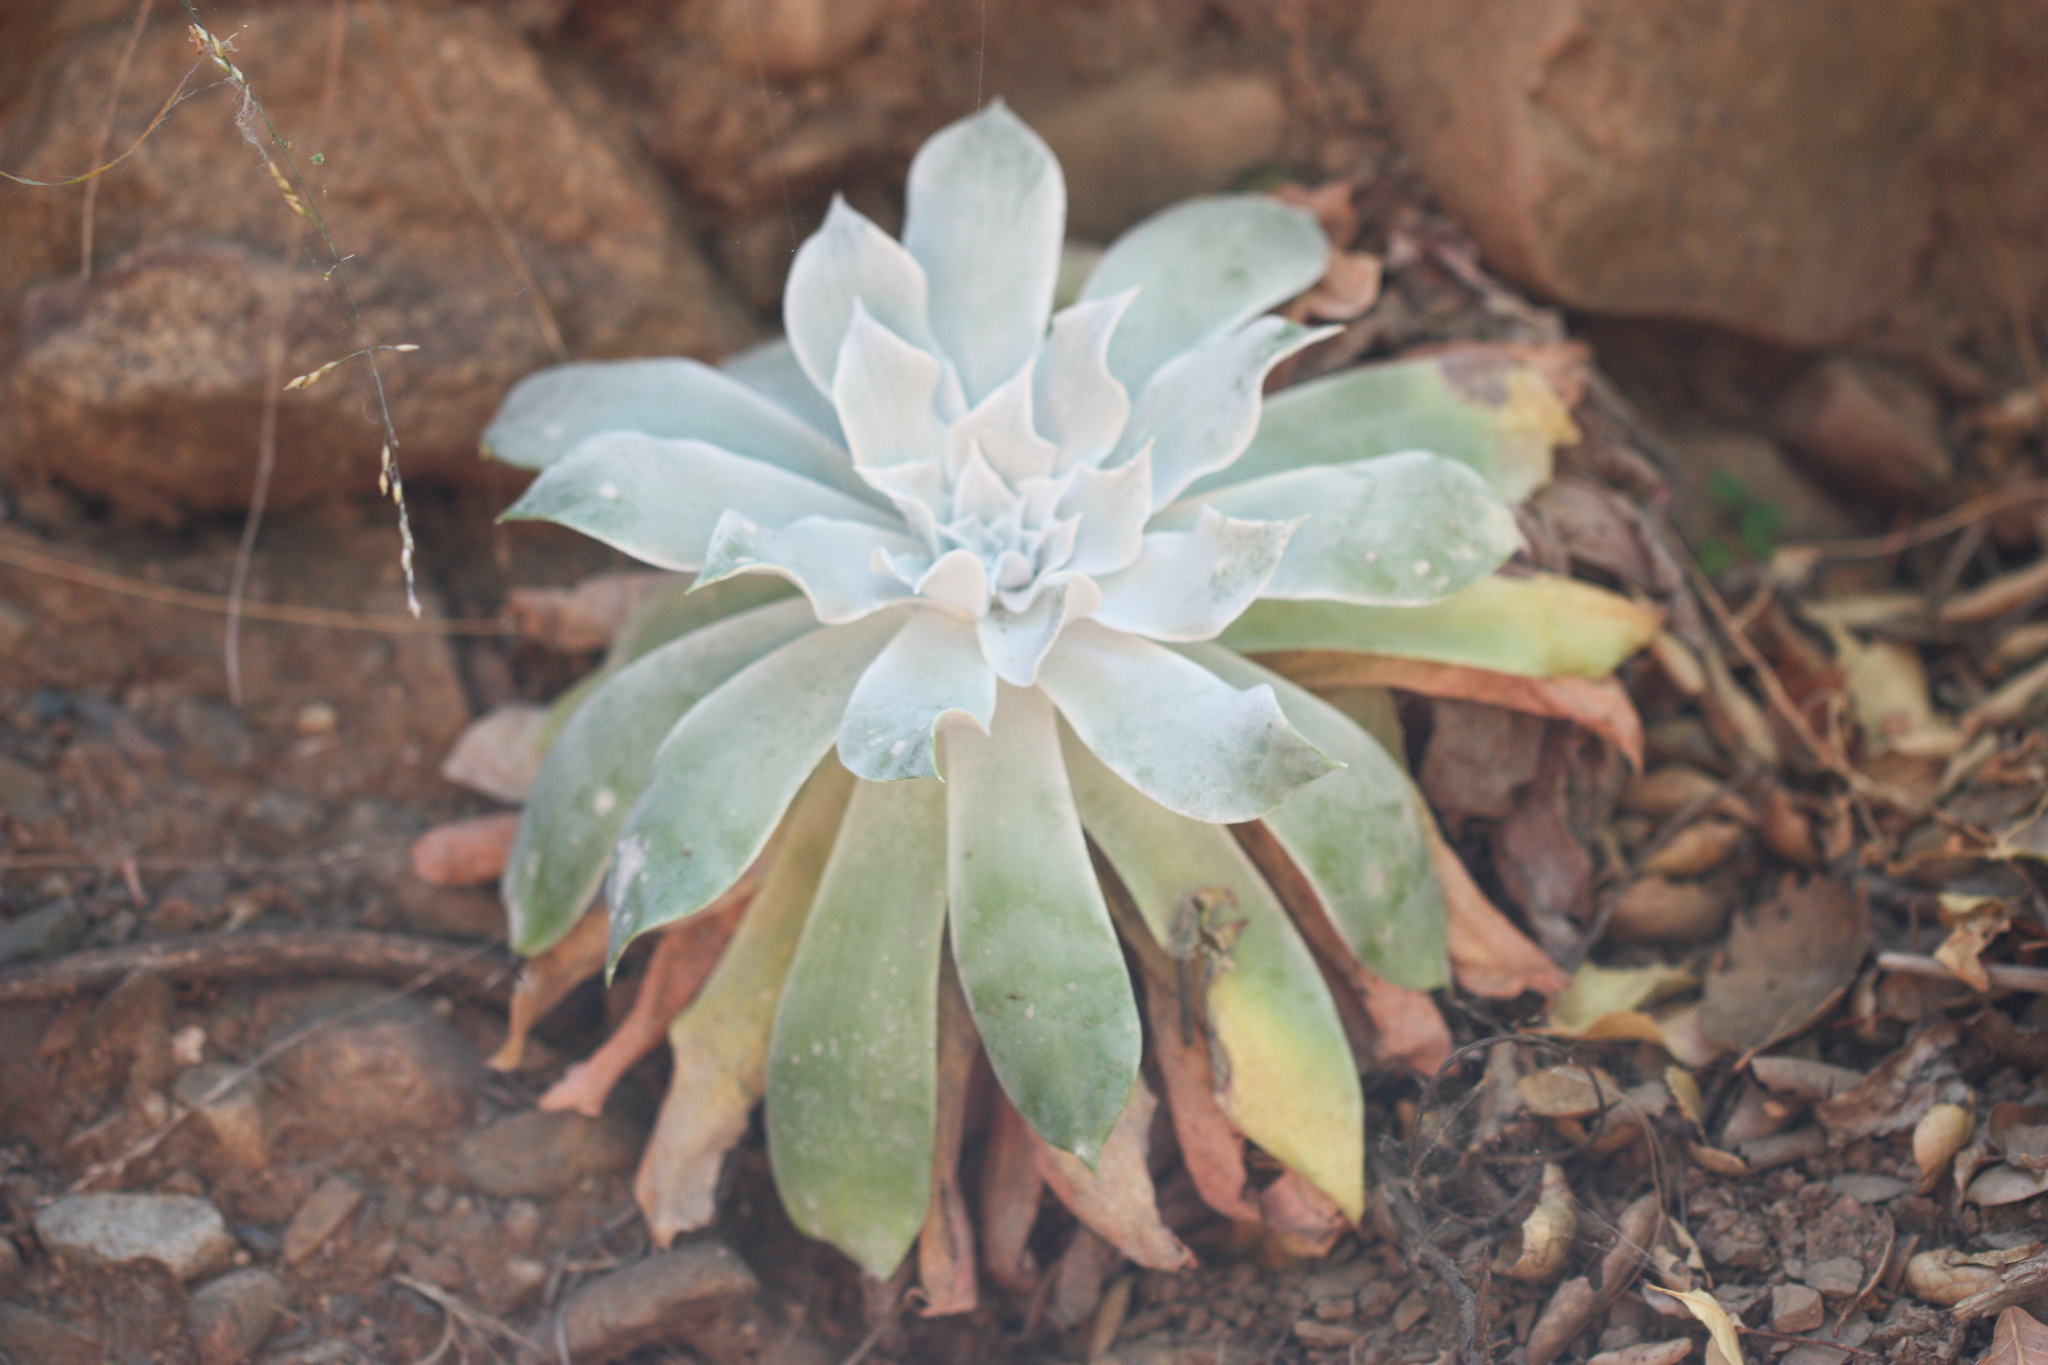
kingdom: Plantae
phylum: Tracheophyta
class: Magnoliopsida
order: Saxifragales
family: Crassulaceae
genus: Dudleya
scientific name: Dudleya pulverulenta
